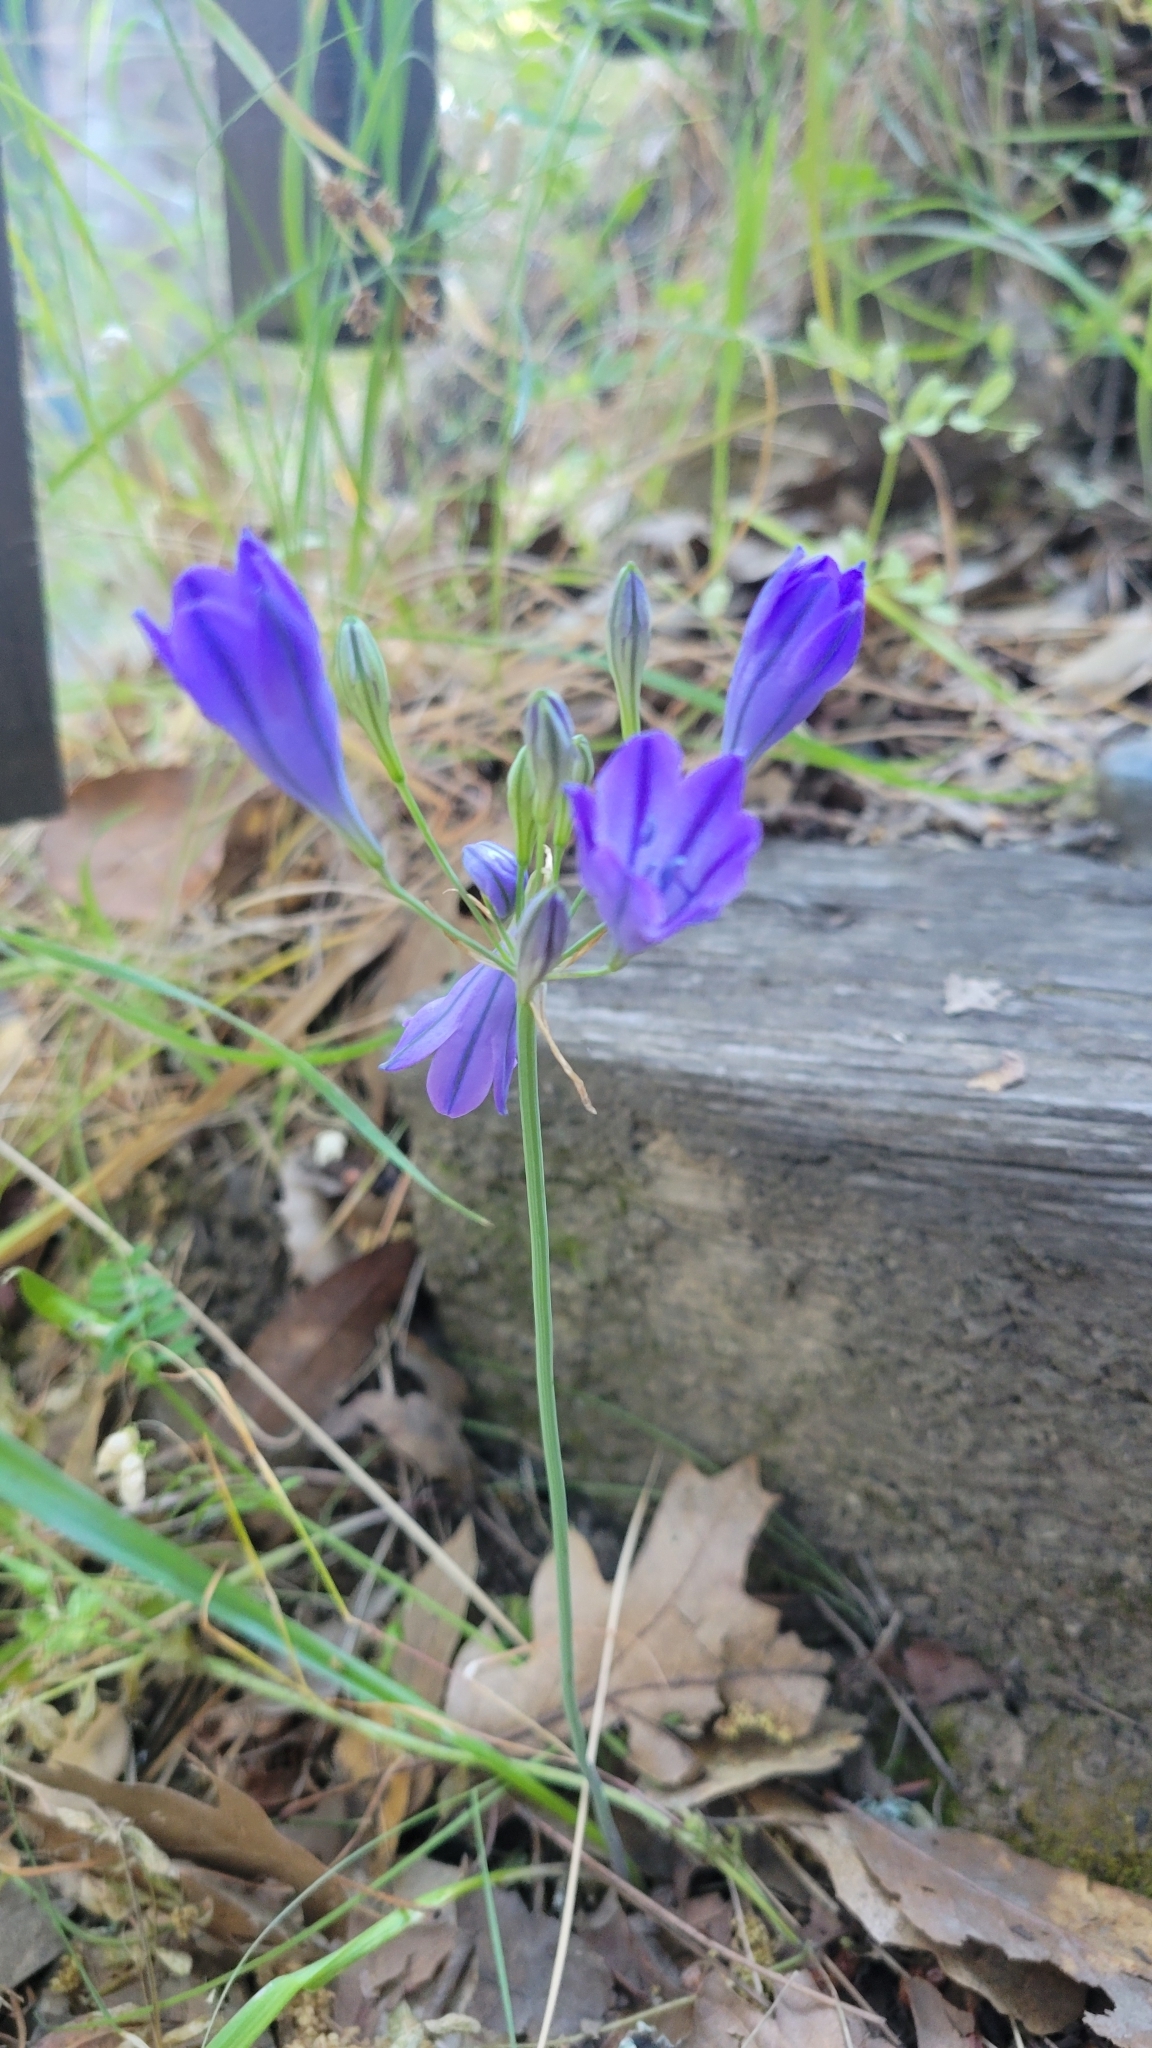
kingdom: Plantae
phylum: Tracheophyta
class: Liliopsida
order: Asparagales
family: Asparagaceae
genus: Triteleia
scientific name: Triteleia laxa
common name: Triplet-lily
